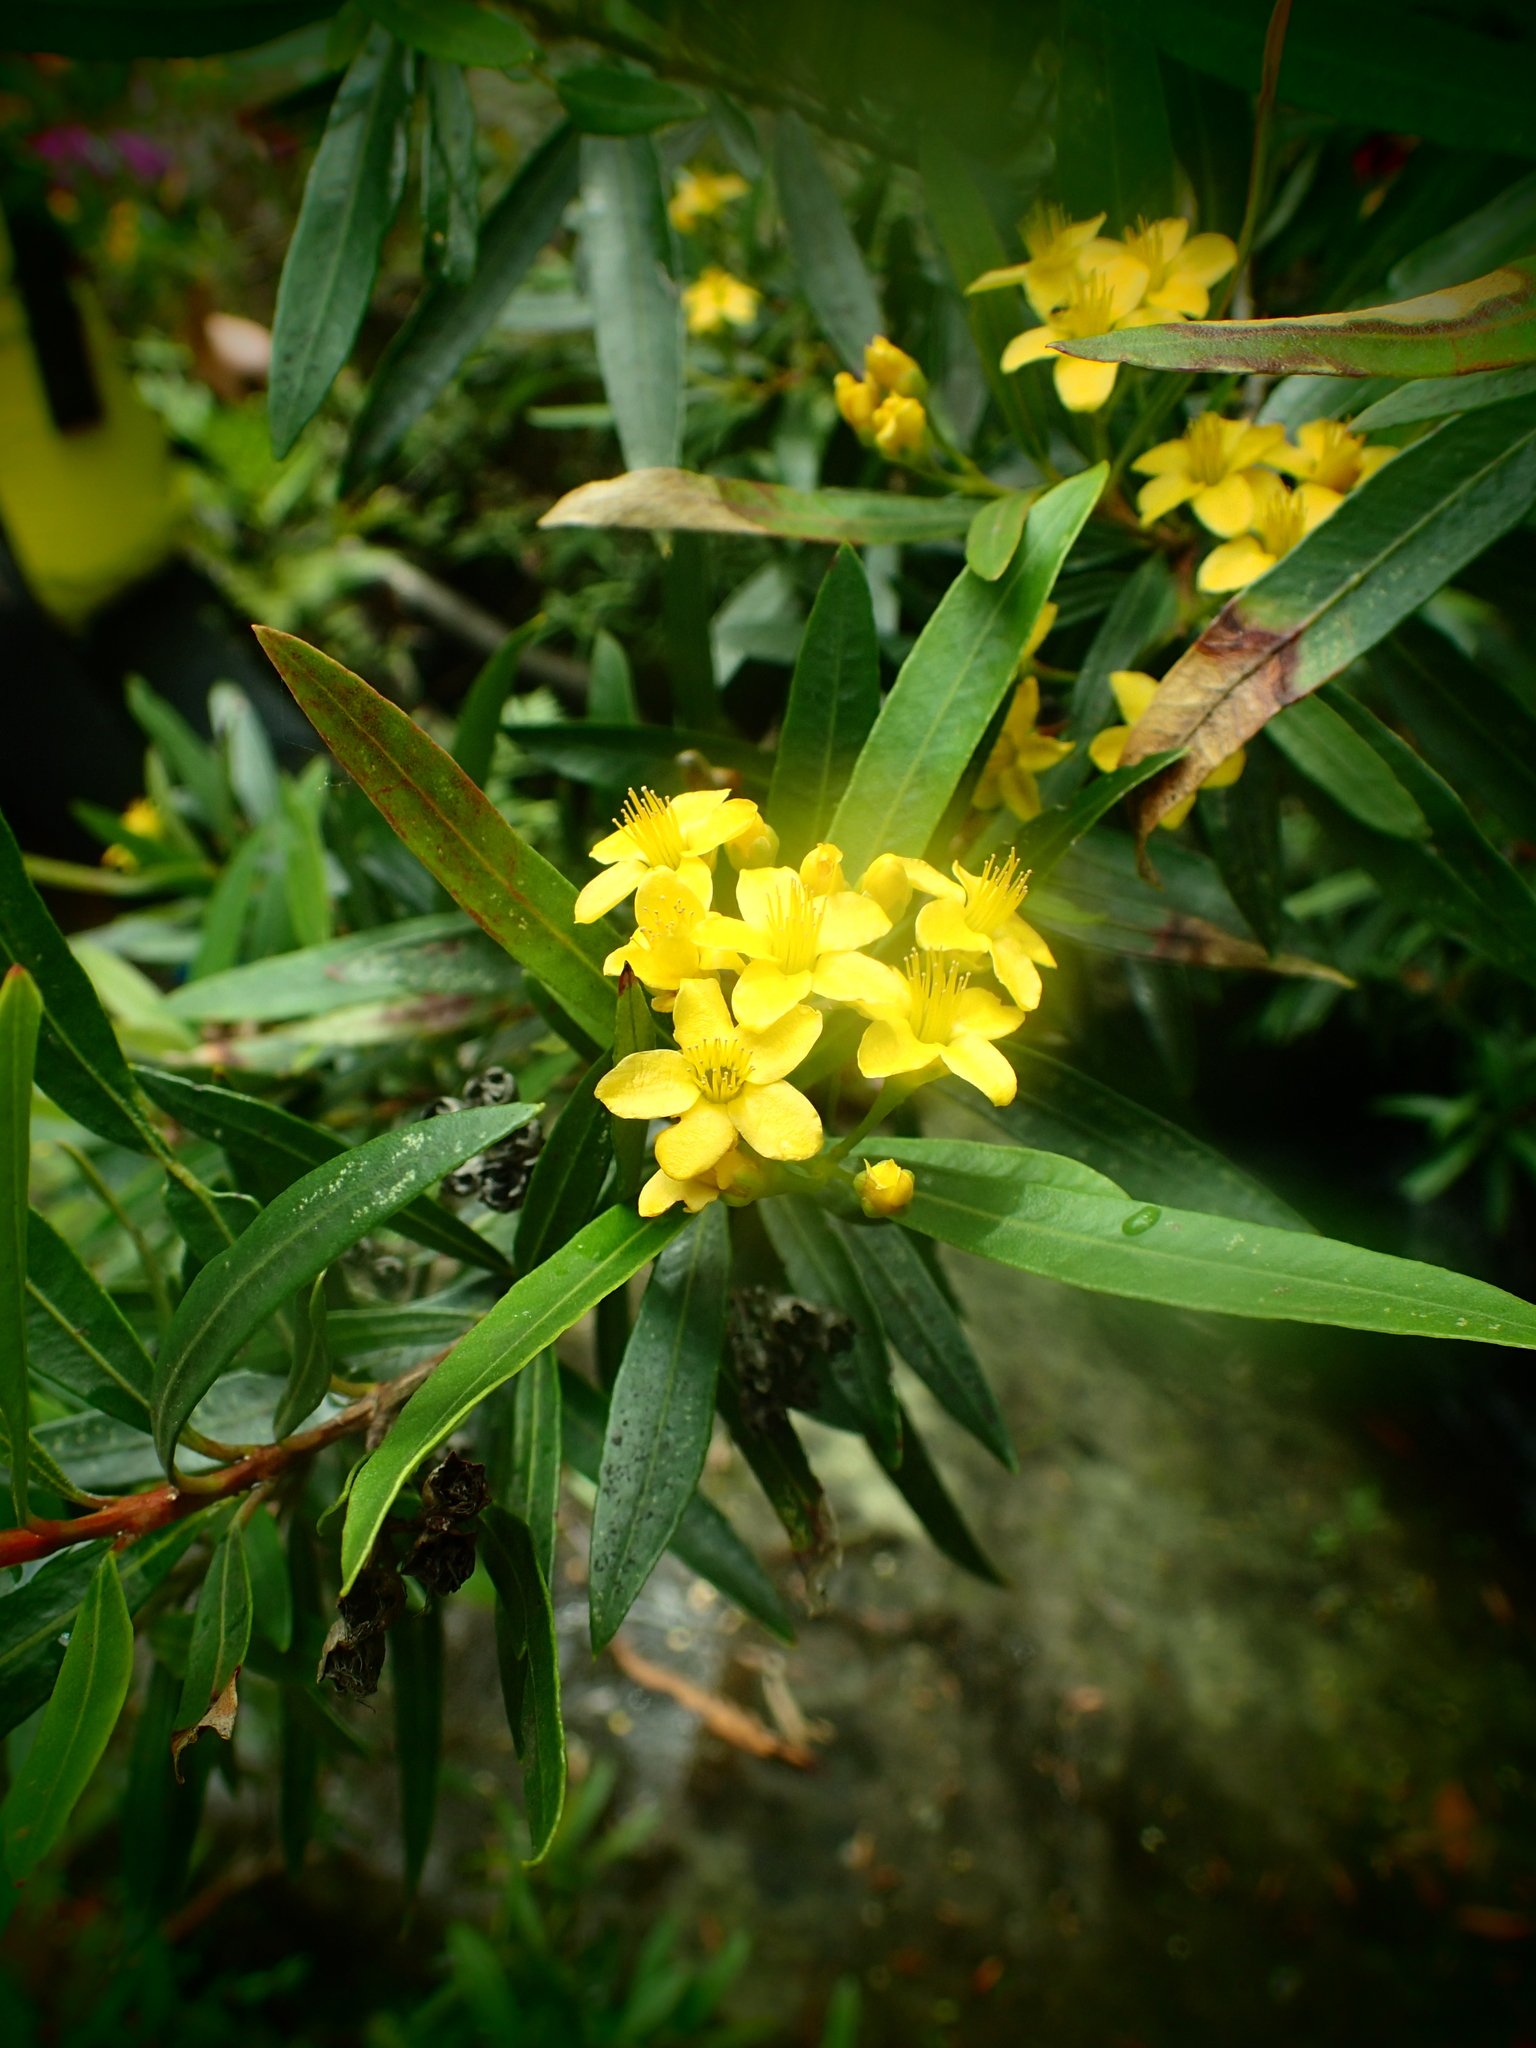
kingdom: Plantae
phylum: Tracheophyta
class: Magnoliopsida
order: Myrtales
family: Myrtaceae
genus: Tristania
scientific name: Tristania neriifolia
